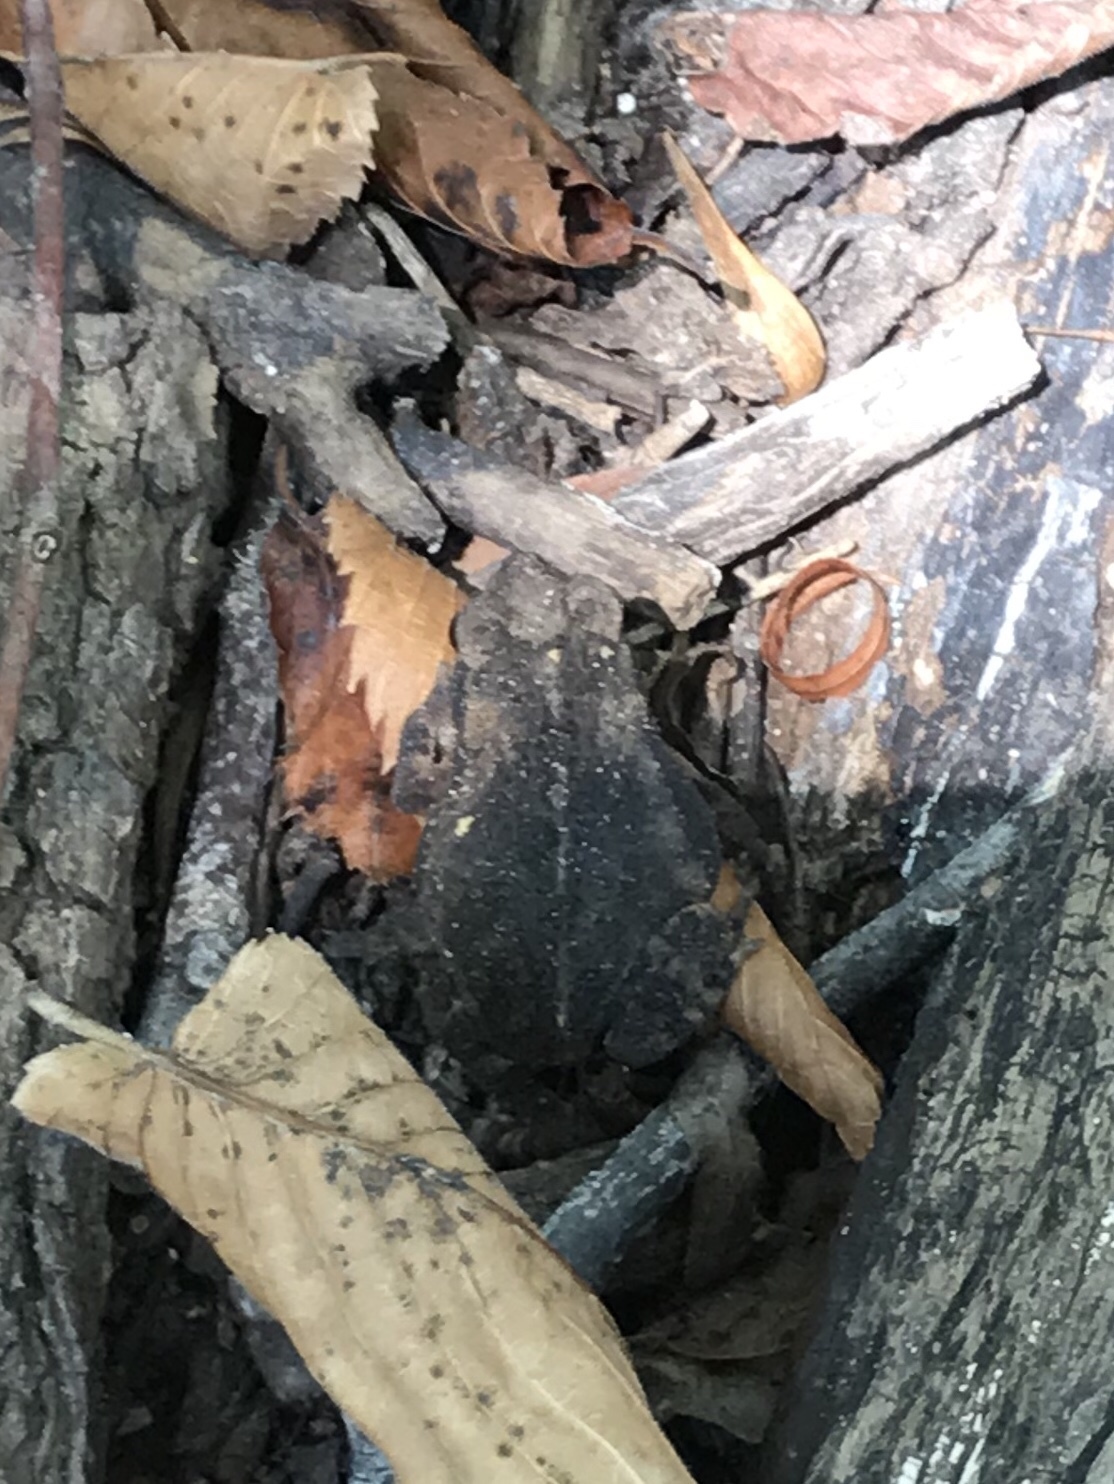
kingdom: Animalia
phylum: Chordata
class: Amphibia
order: Anura
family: Bufonidae
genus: Incilius
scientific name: Incilius nebulifer
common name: Gulf coast toad
